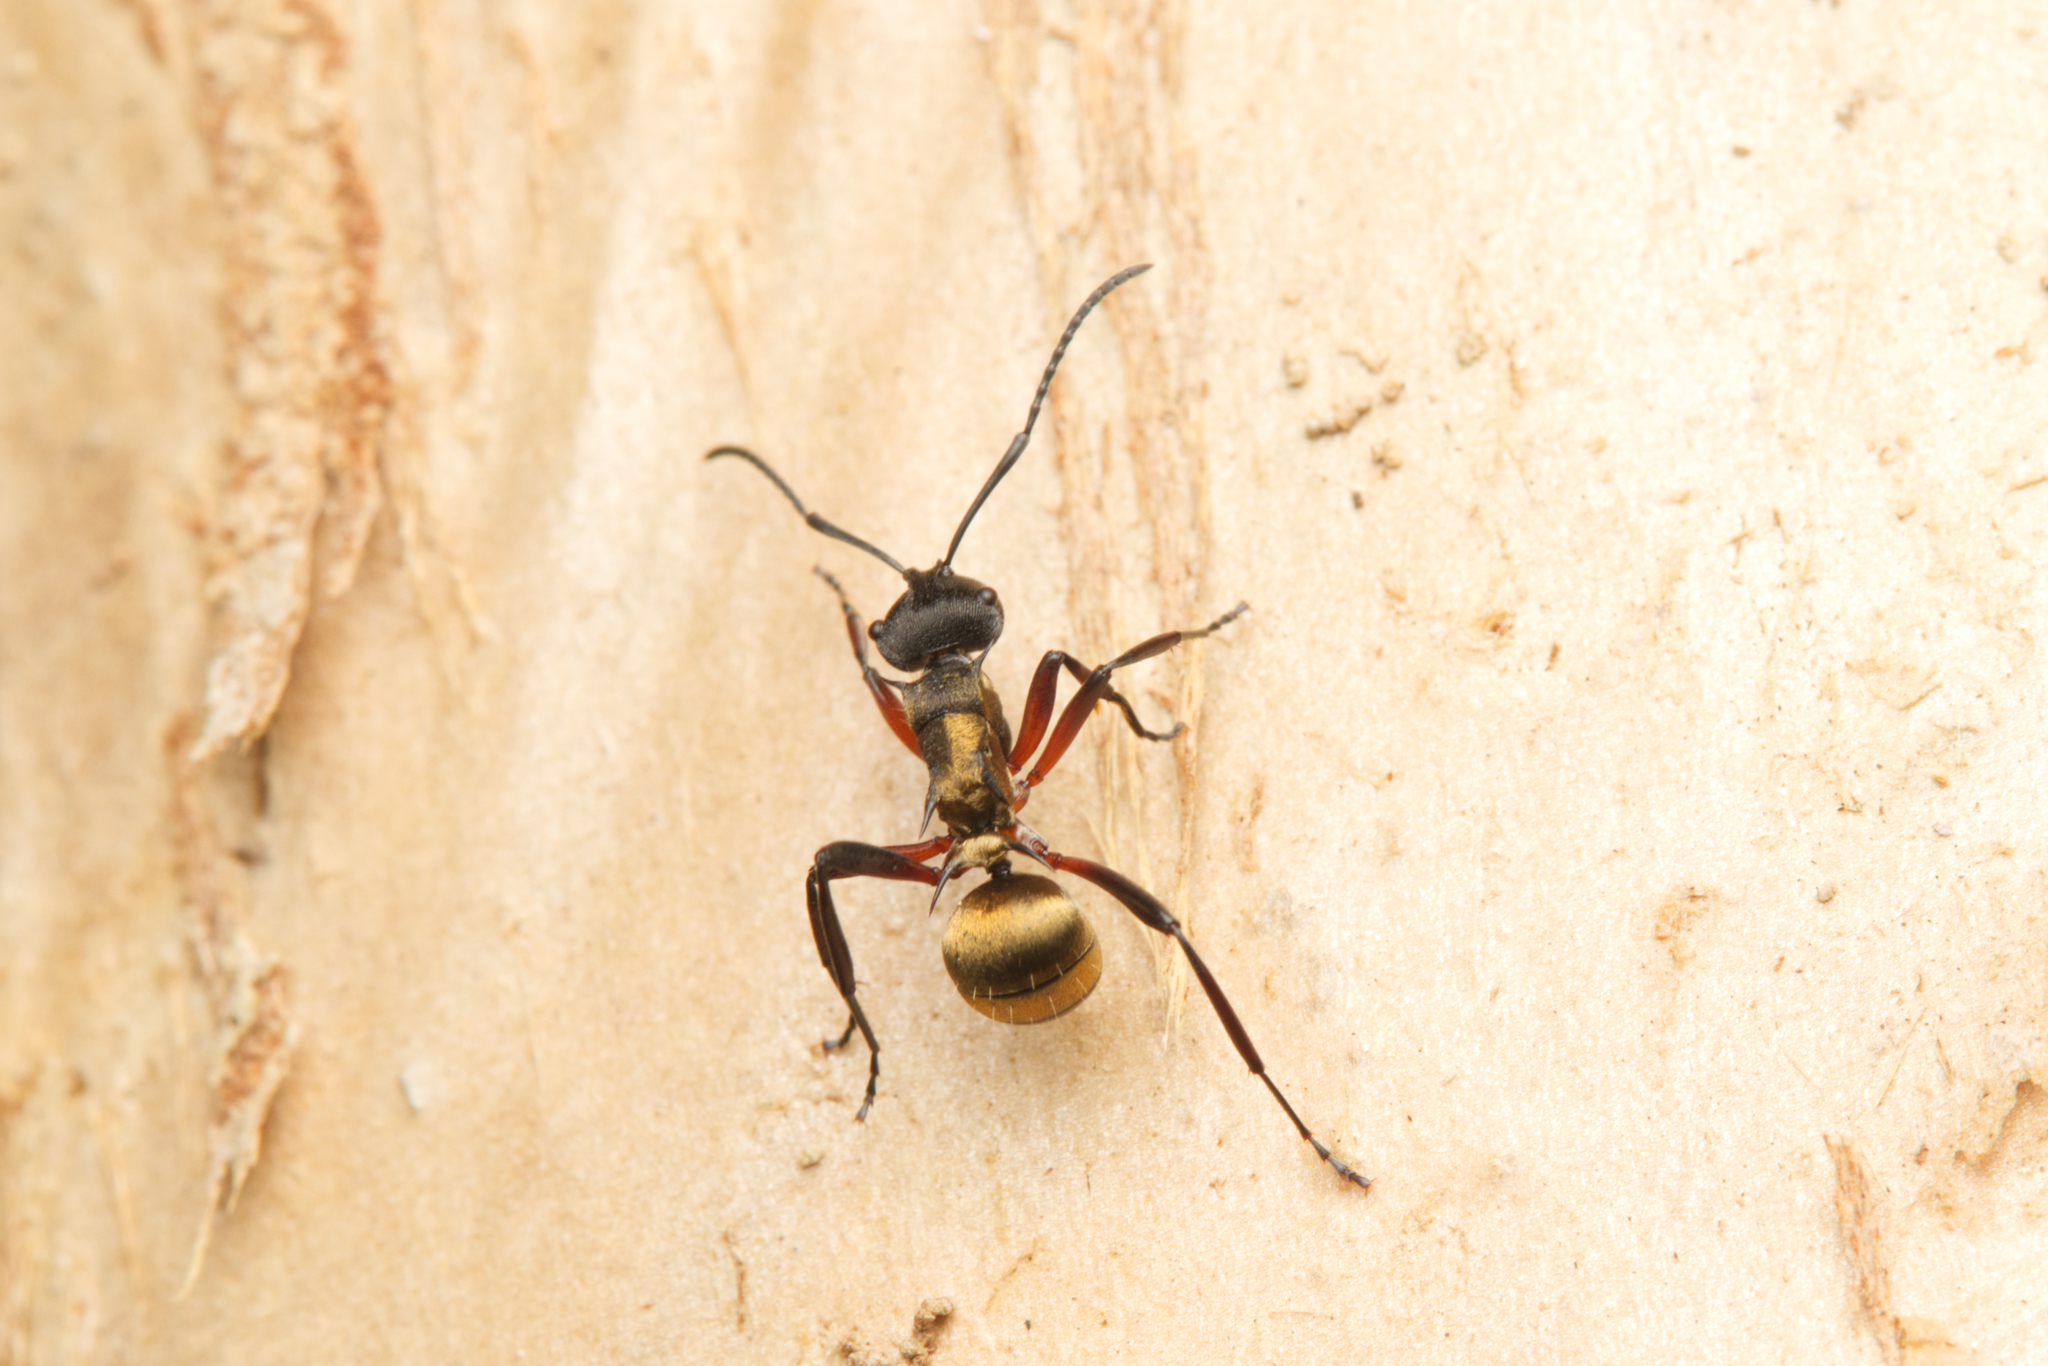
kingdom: Animalia
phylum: Arthropoda
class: Insecta
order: Hymenoptera
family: Formicidae
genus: Polyrhachis
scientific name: Polyrhachis rufifemur
